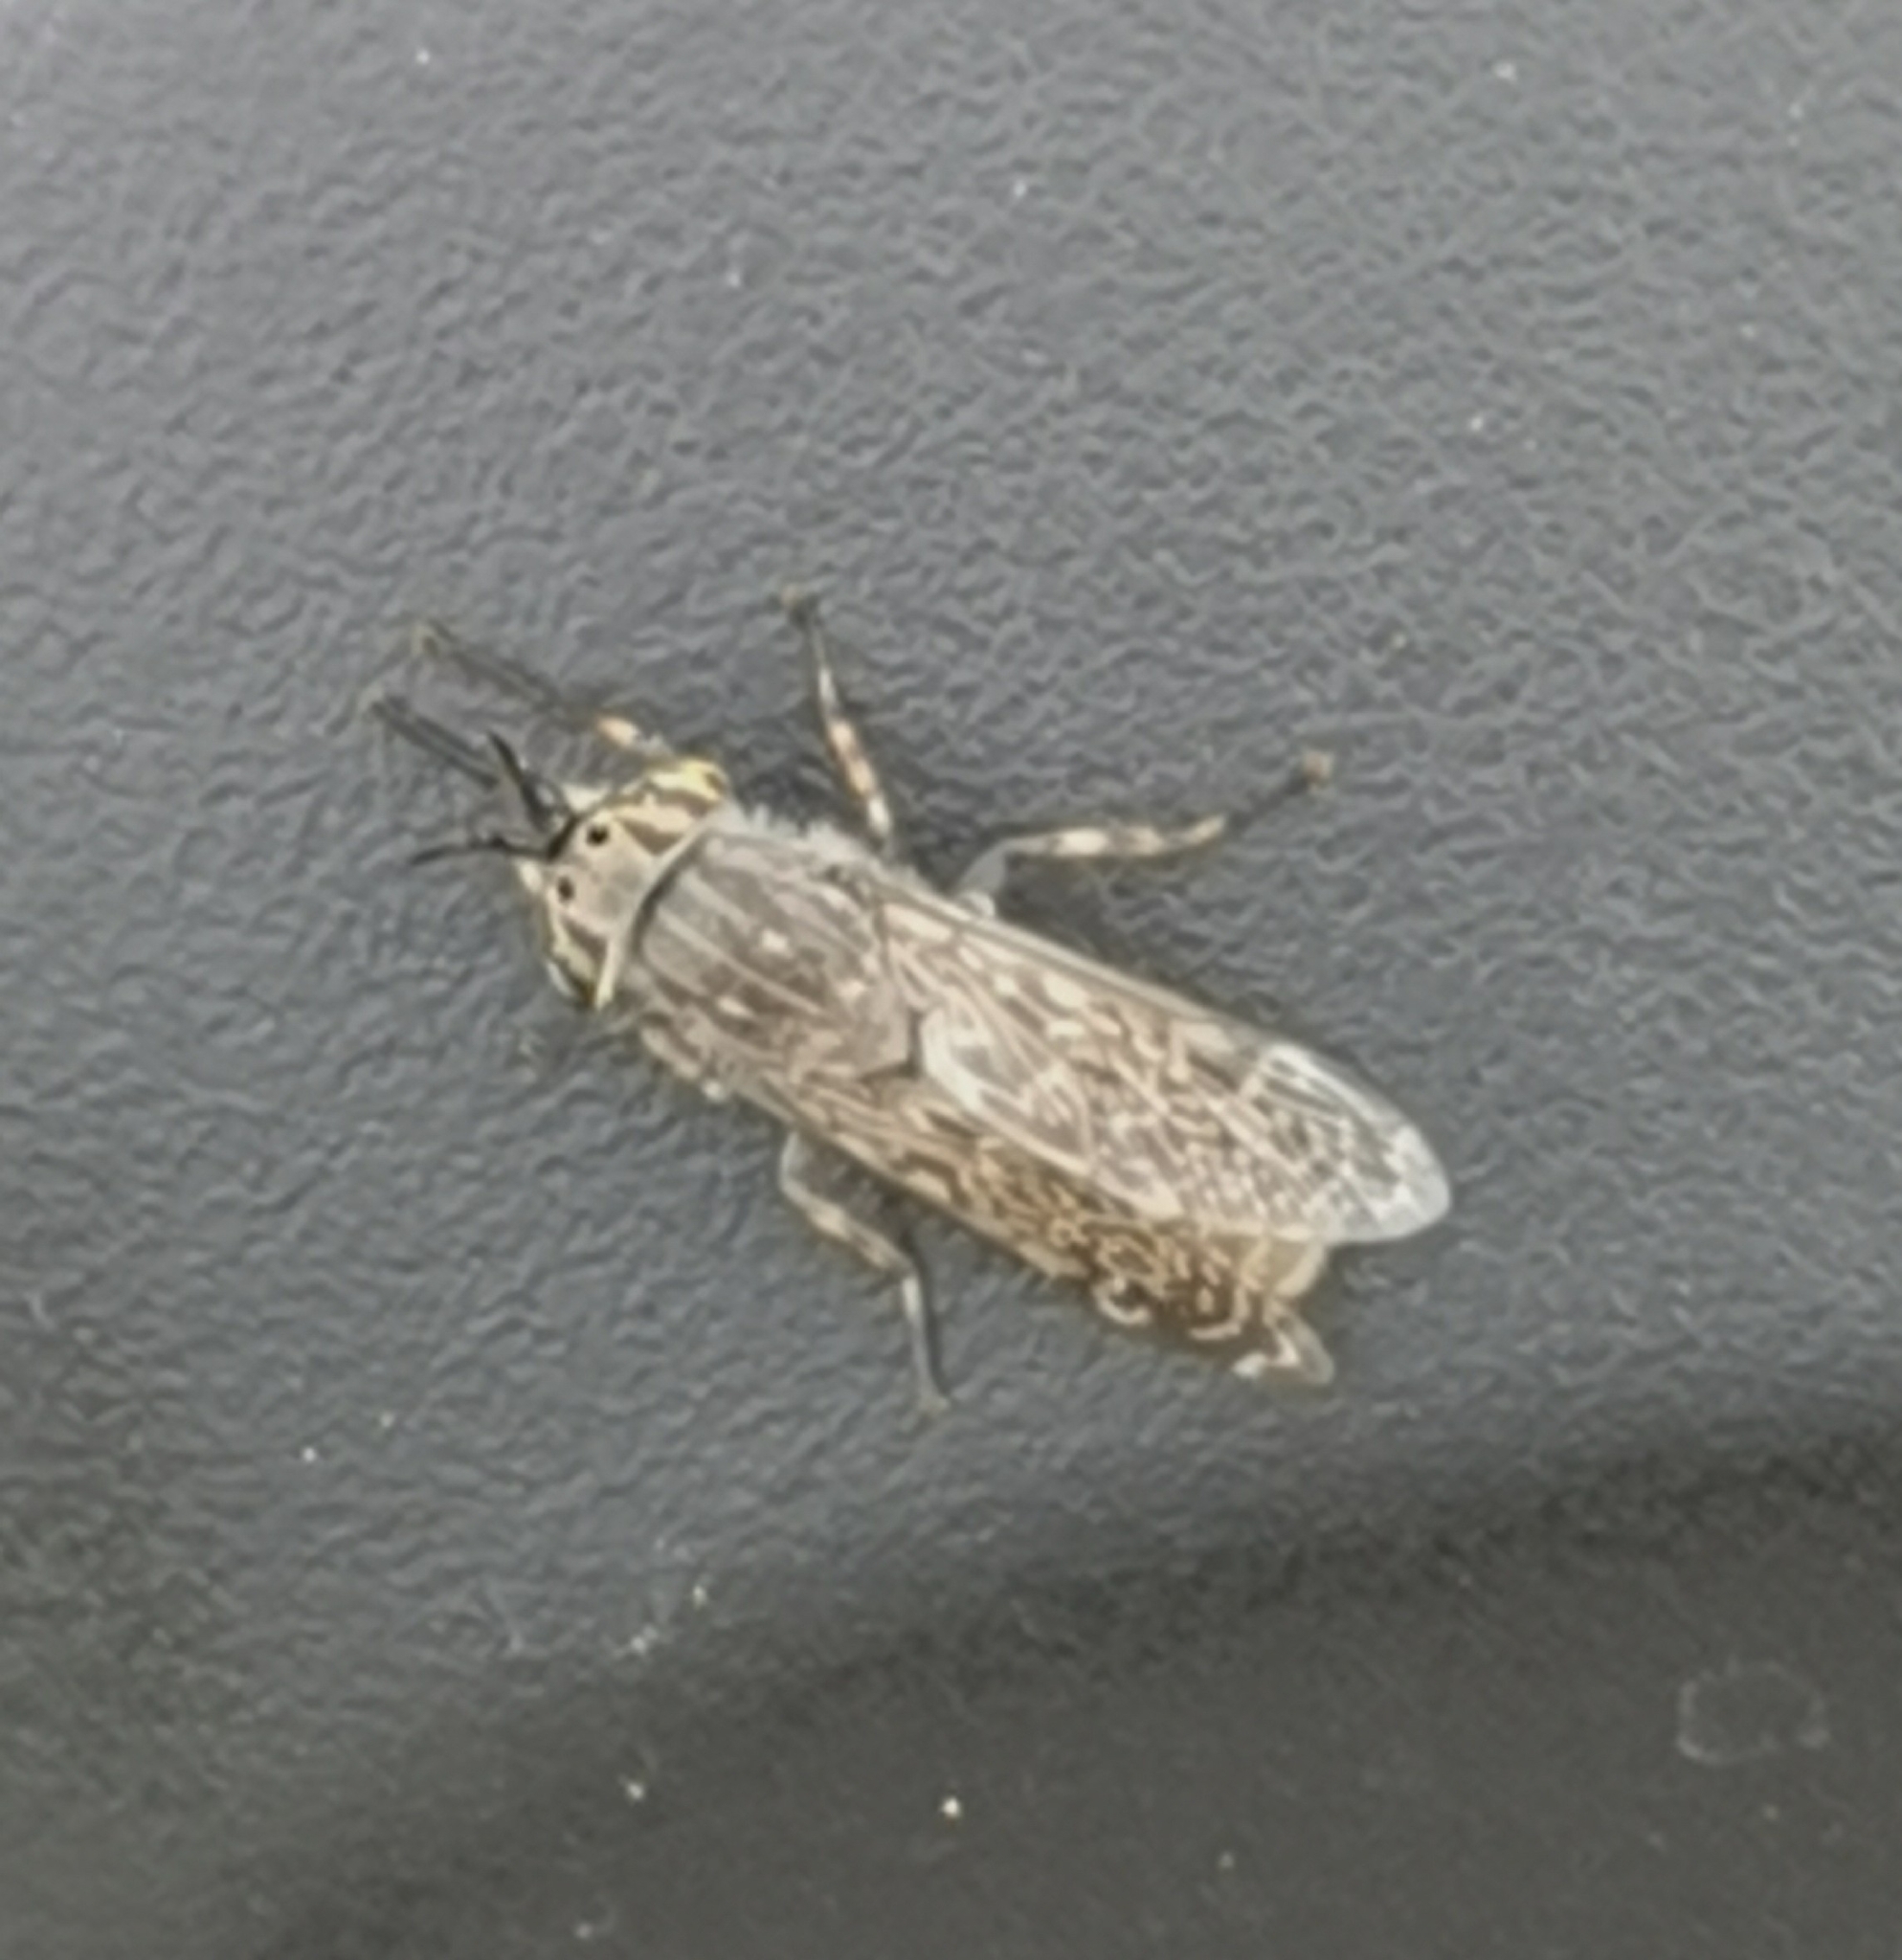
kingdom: Animalia
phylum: Arthropoda
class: Insecta
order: Diptera
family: Tabanidae
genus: Haematopota
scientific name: Haematopota pluvialis
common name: Common horse fly
